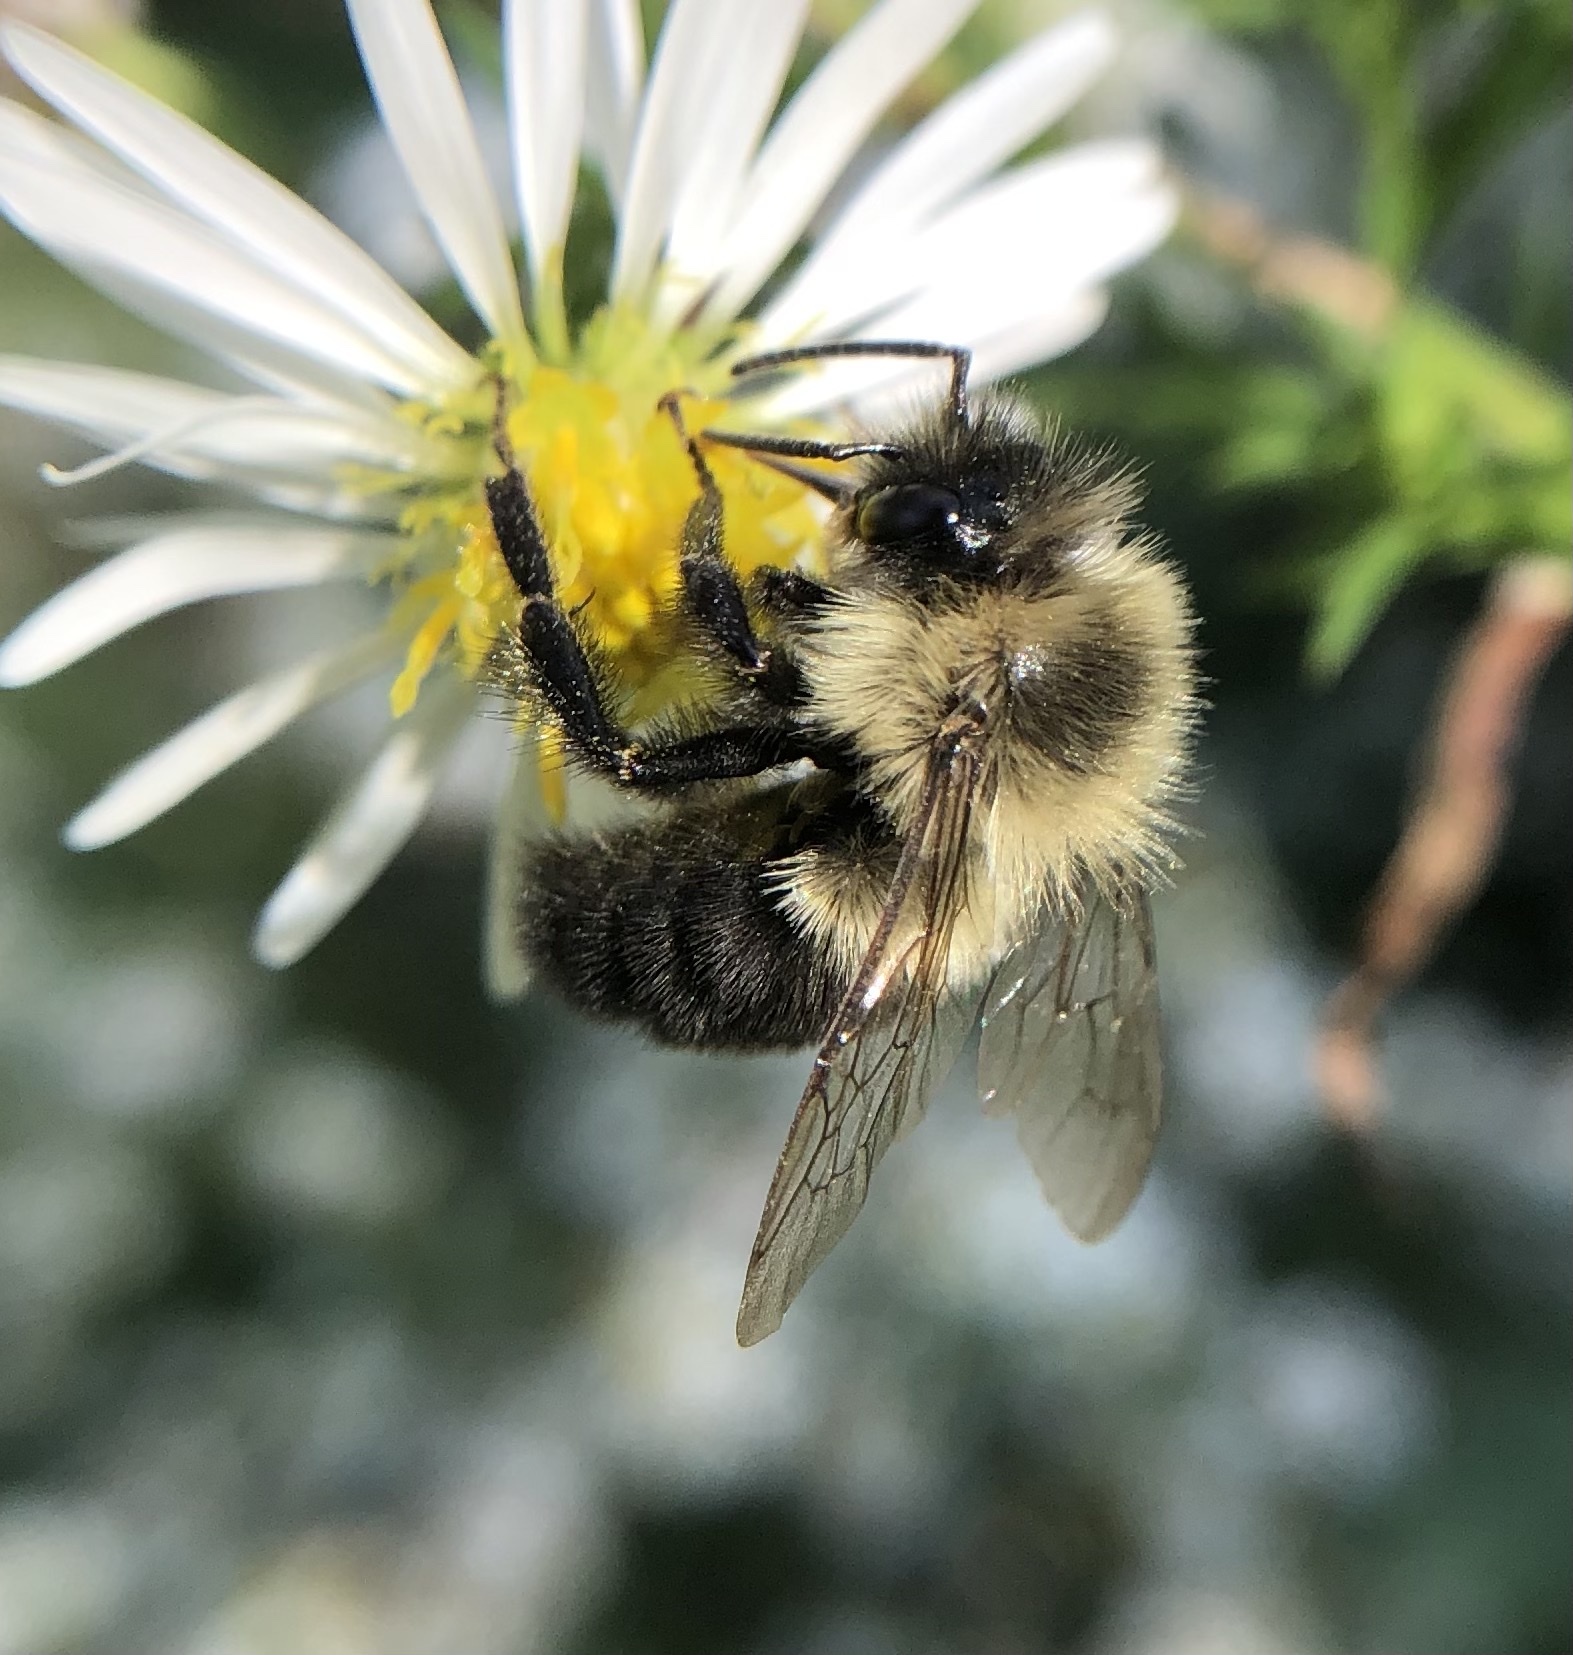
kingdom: Animalia
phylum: Arthropoda
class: Insecta
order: Hymenoptera
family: Apidae
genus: Bombus
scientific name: Bombus impatiens
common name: Common eastern bumble bee
